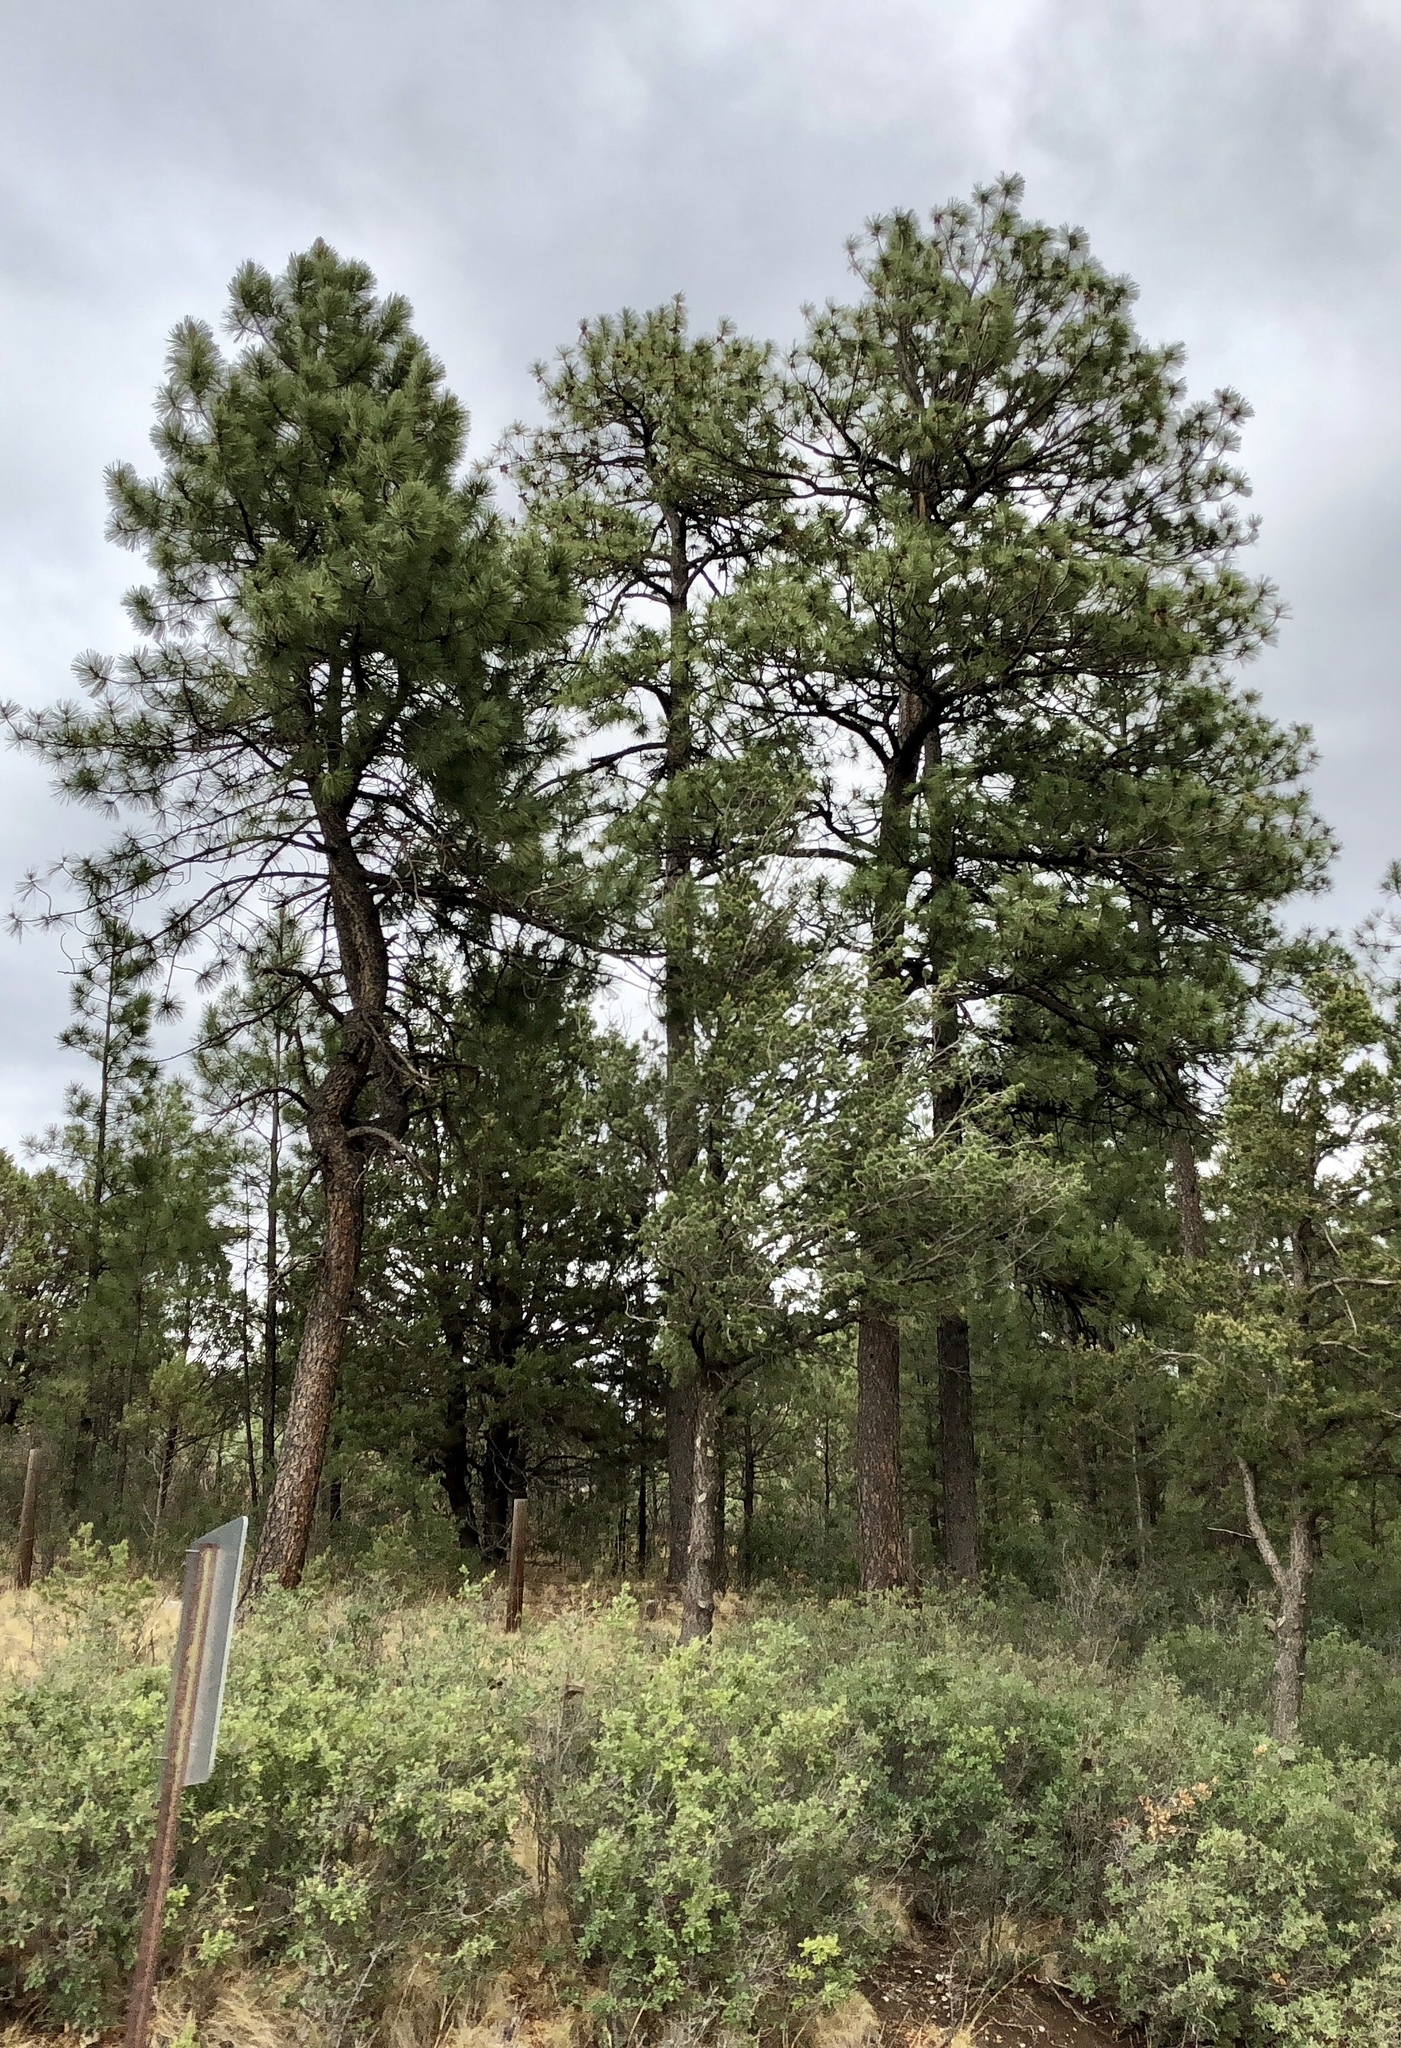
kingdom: Plantae
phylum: Tracheophyta
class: Pinopsida
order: Pinales
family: Pinaceae
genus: Pinus
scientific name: Pinus ponderosa
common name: Western yellow-pine
